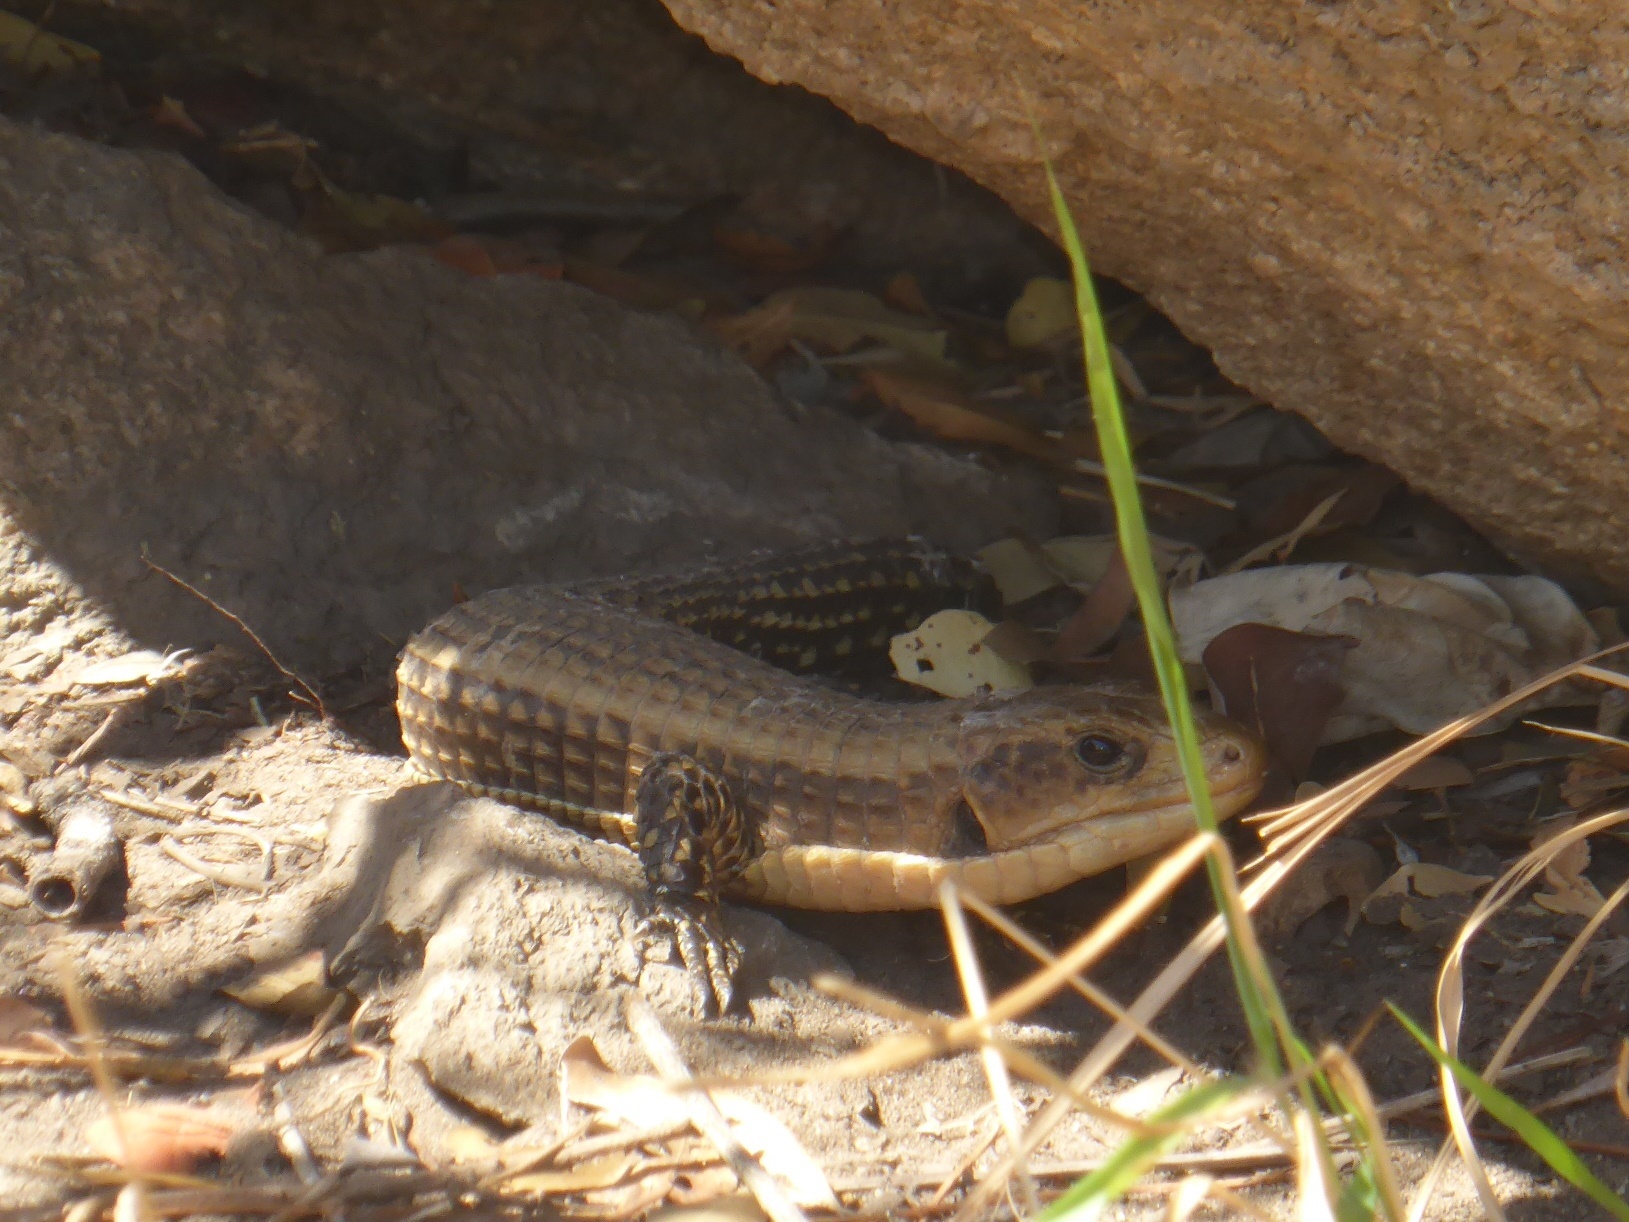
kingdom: Animalia
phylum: Chordata
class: Squamata
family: Gerrhosauridae
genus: Broadleysaurus
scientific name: Broadleysaurus major
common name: Rough-scaled plated lizard
